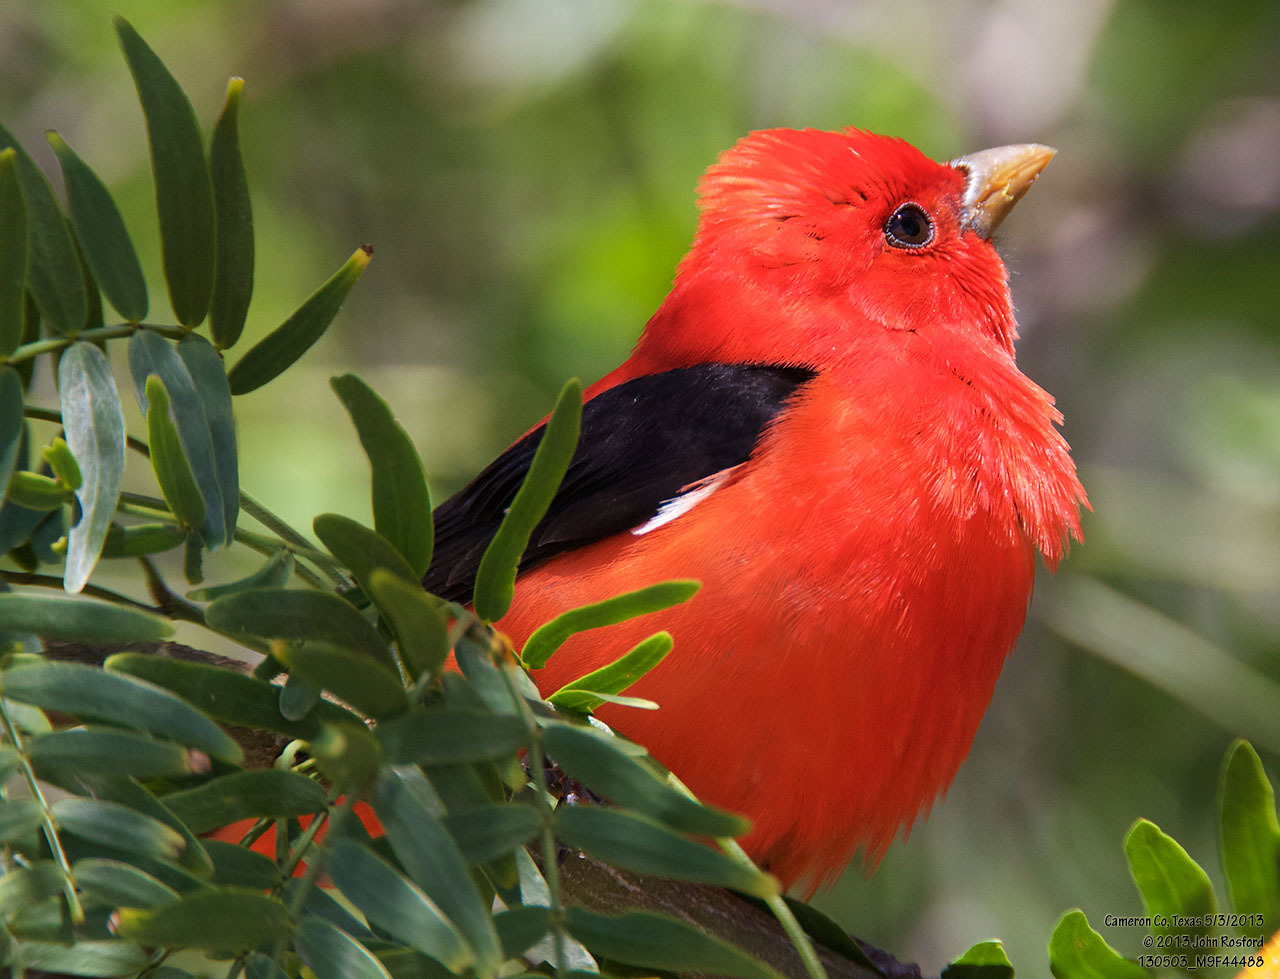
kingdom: Animalia
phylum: Chordata
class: Aves
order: Passeriformes
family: Cardinalidae
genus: Piranga
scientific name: Piranga olivacea
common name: Scarlet tanager
